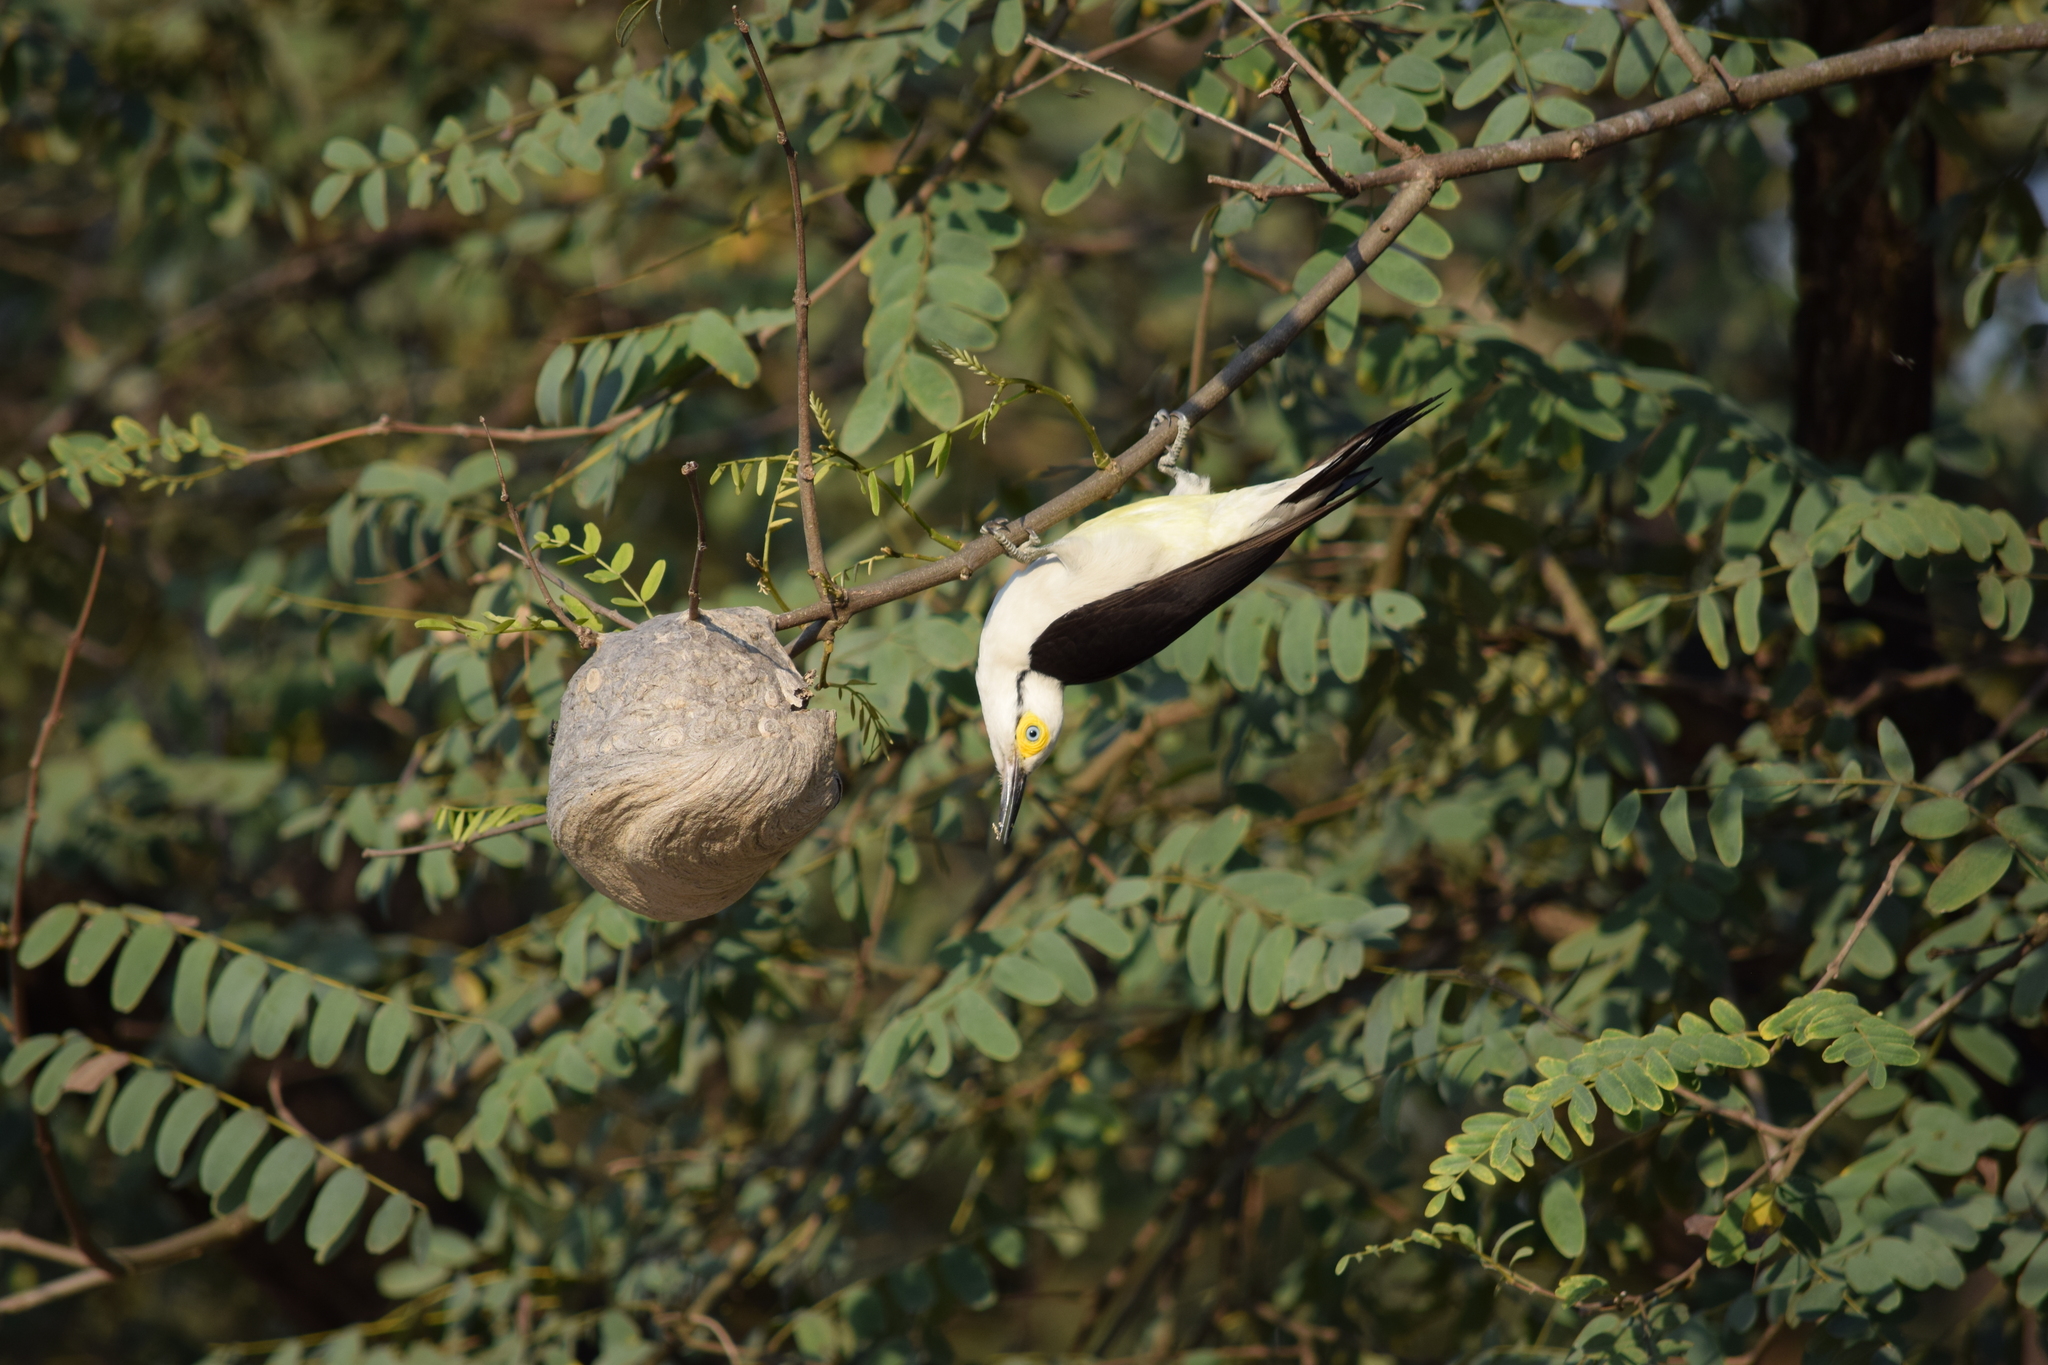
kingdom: Animalia
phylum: Chordata
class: Aves
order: Piciformes
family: Picidae
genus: Melanerpes
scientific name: Melanerpes candidus
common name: White woodpecker
